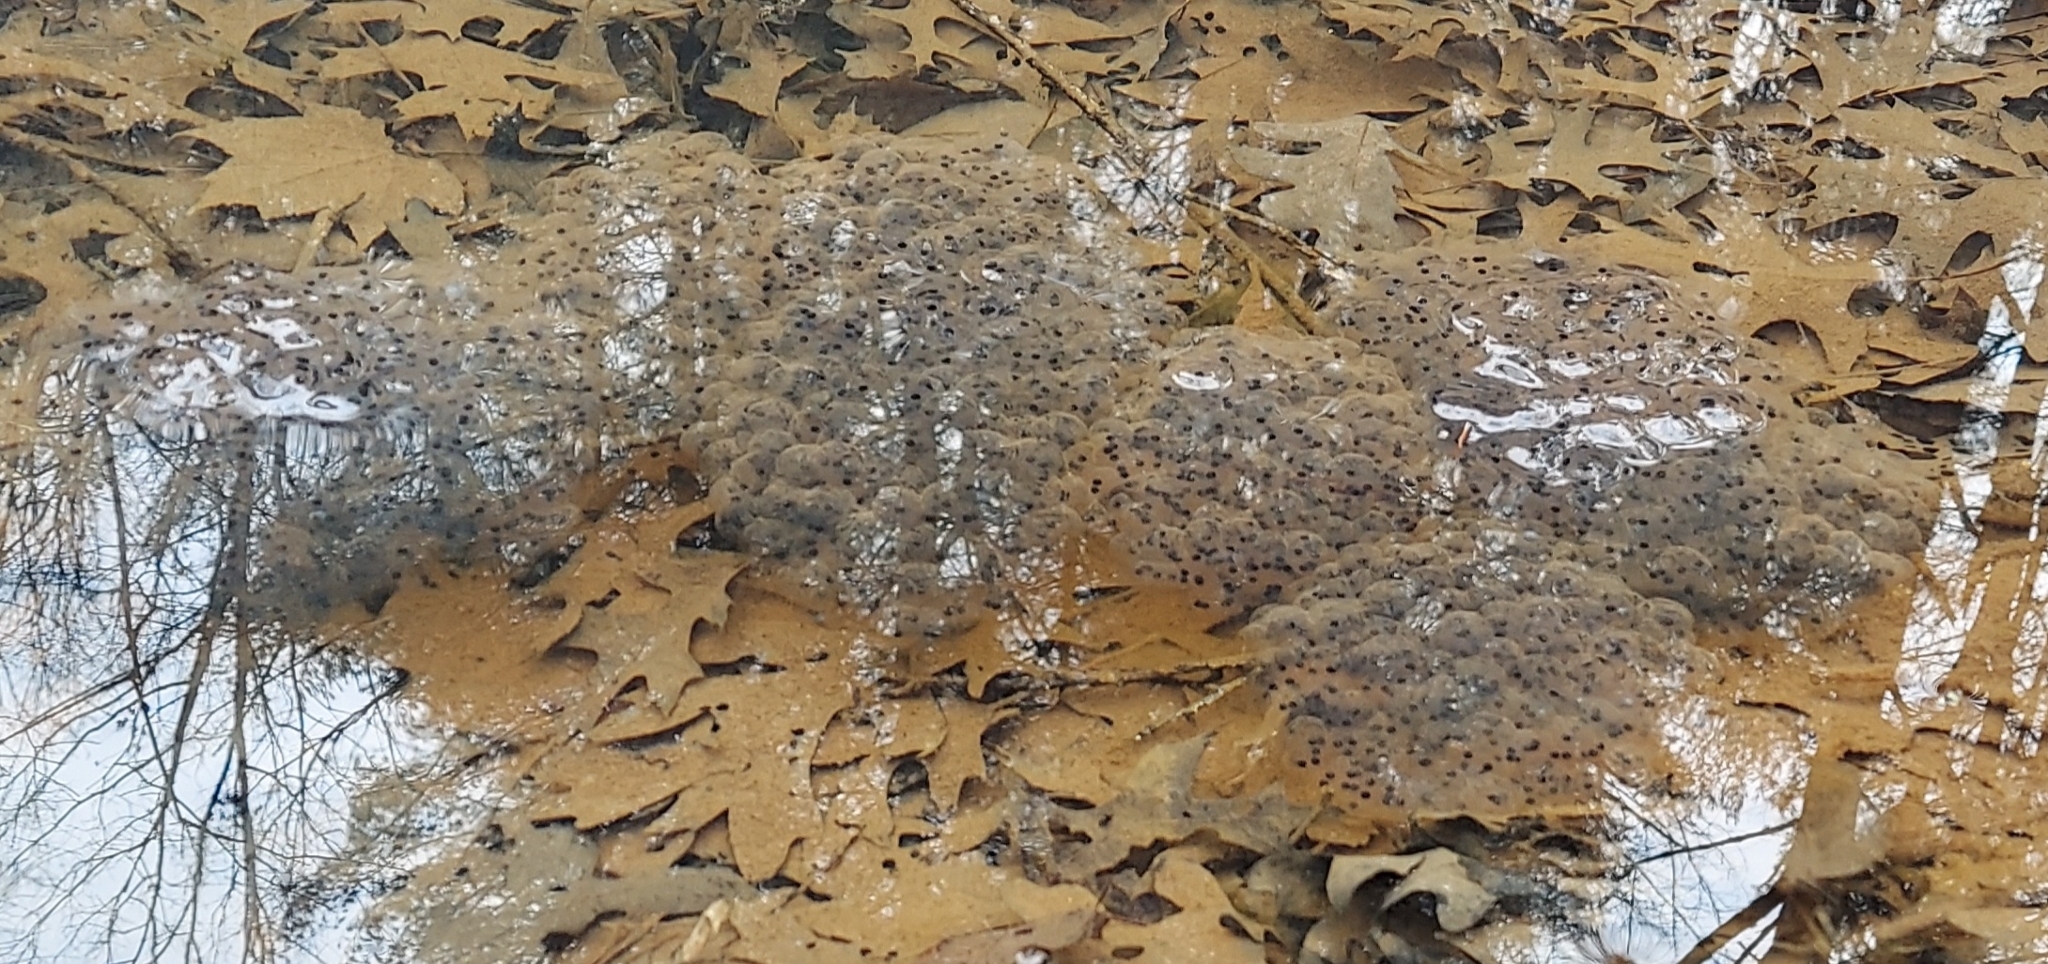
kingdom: Animalia
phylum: Chordata
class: Amphibia
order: Anura
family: Ranidae
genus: Lithobates
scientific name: Lithobates sylvaticus
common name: Wood frog
